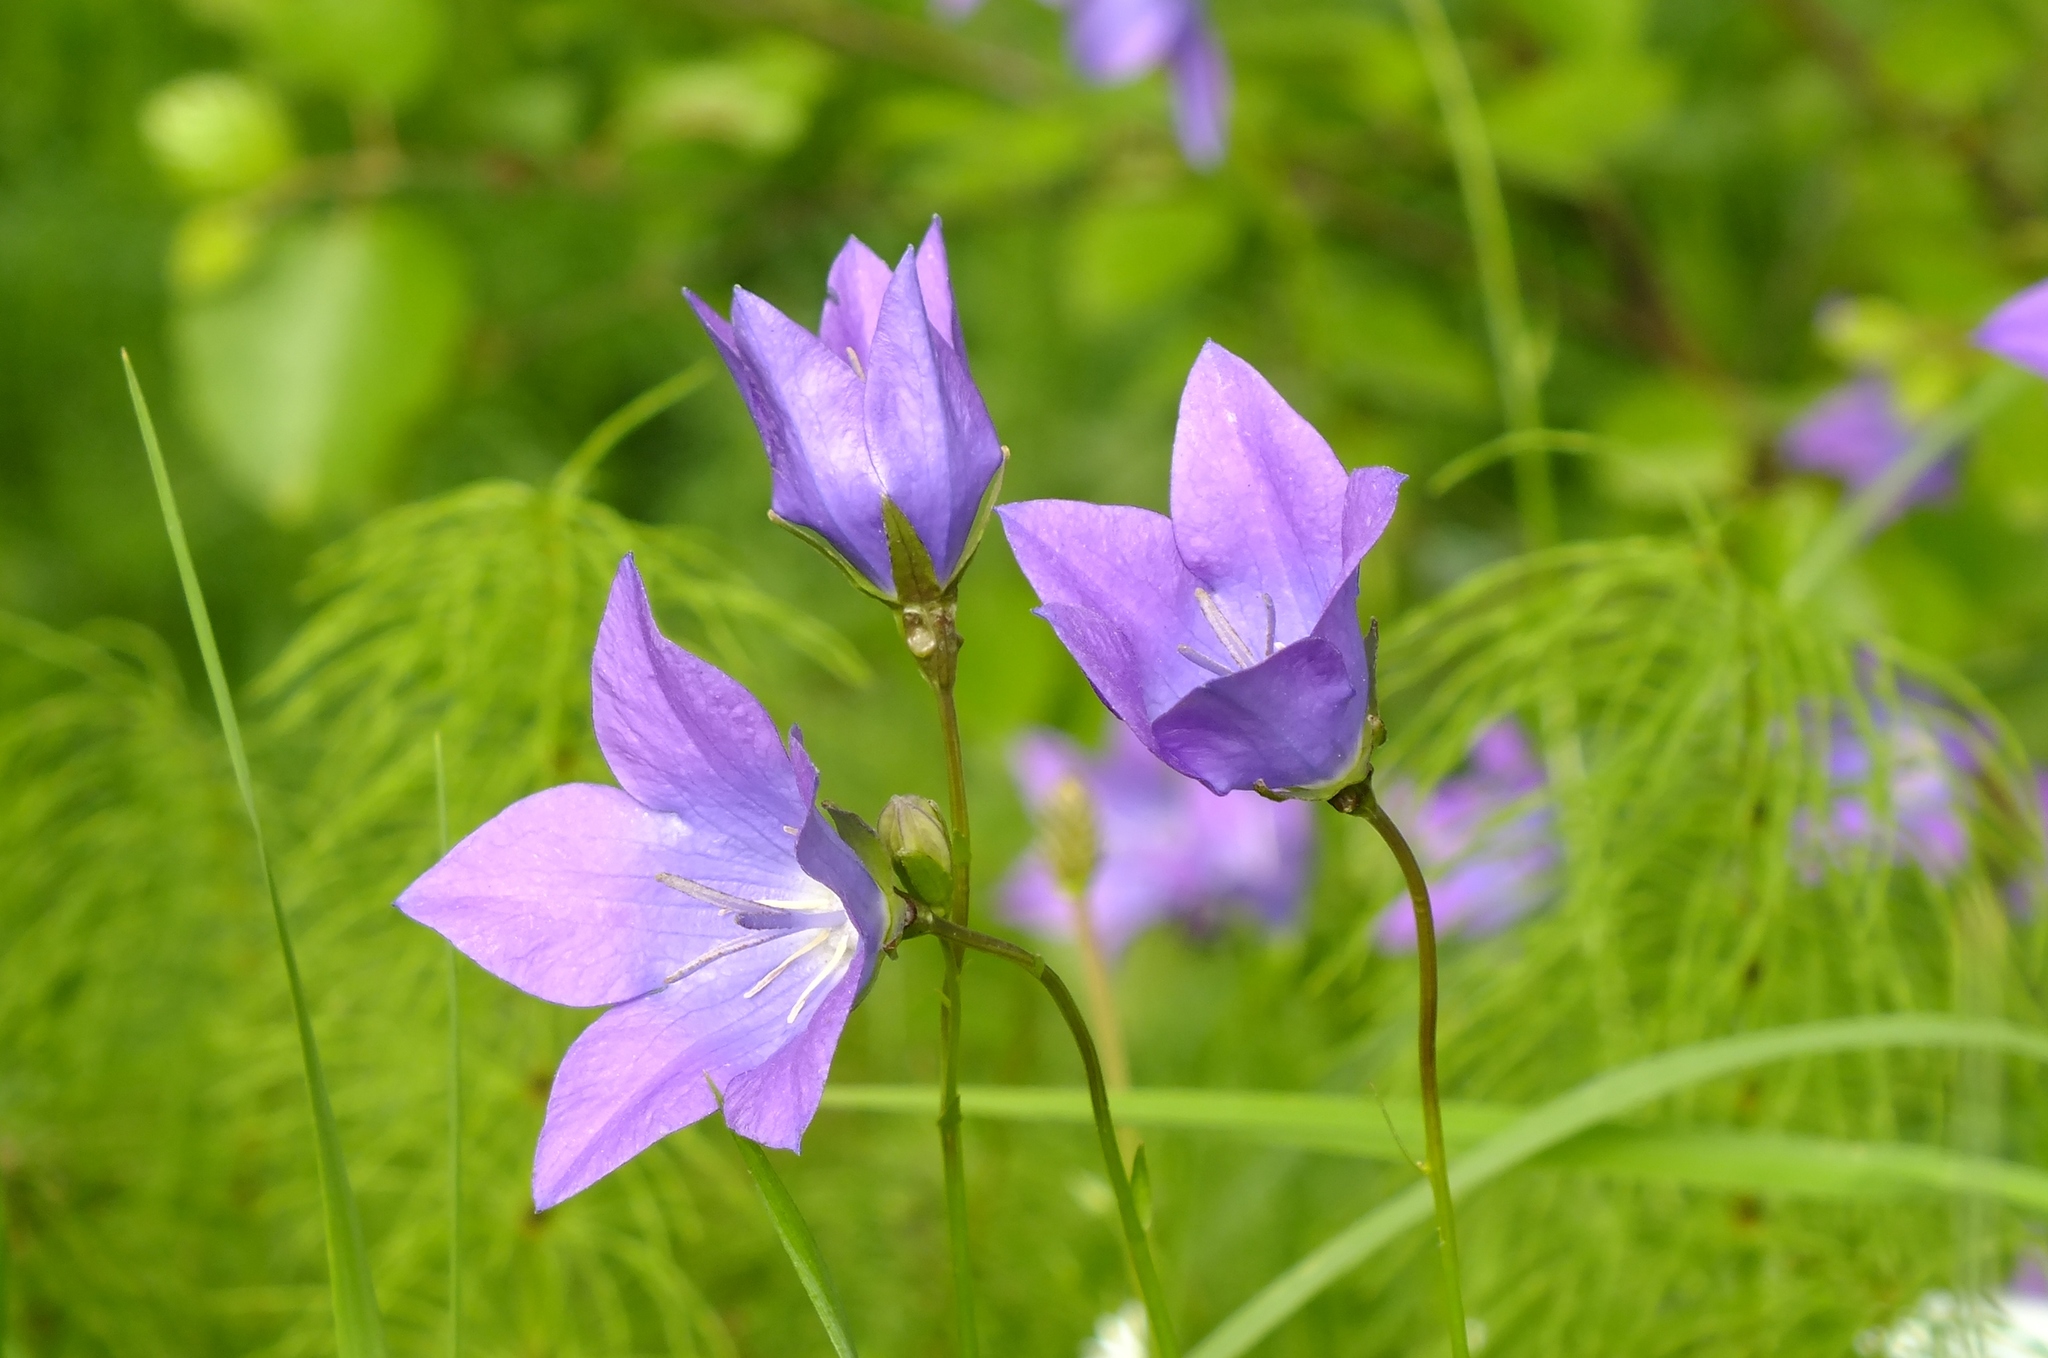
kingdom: Plantae
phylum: Tracheophyta
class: Magnoliopsida
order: Asterales
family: Campanulaceae
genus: Campanula
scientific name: Campanula stevenii
